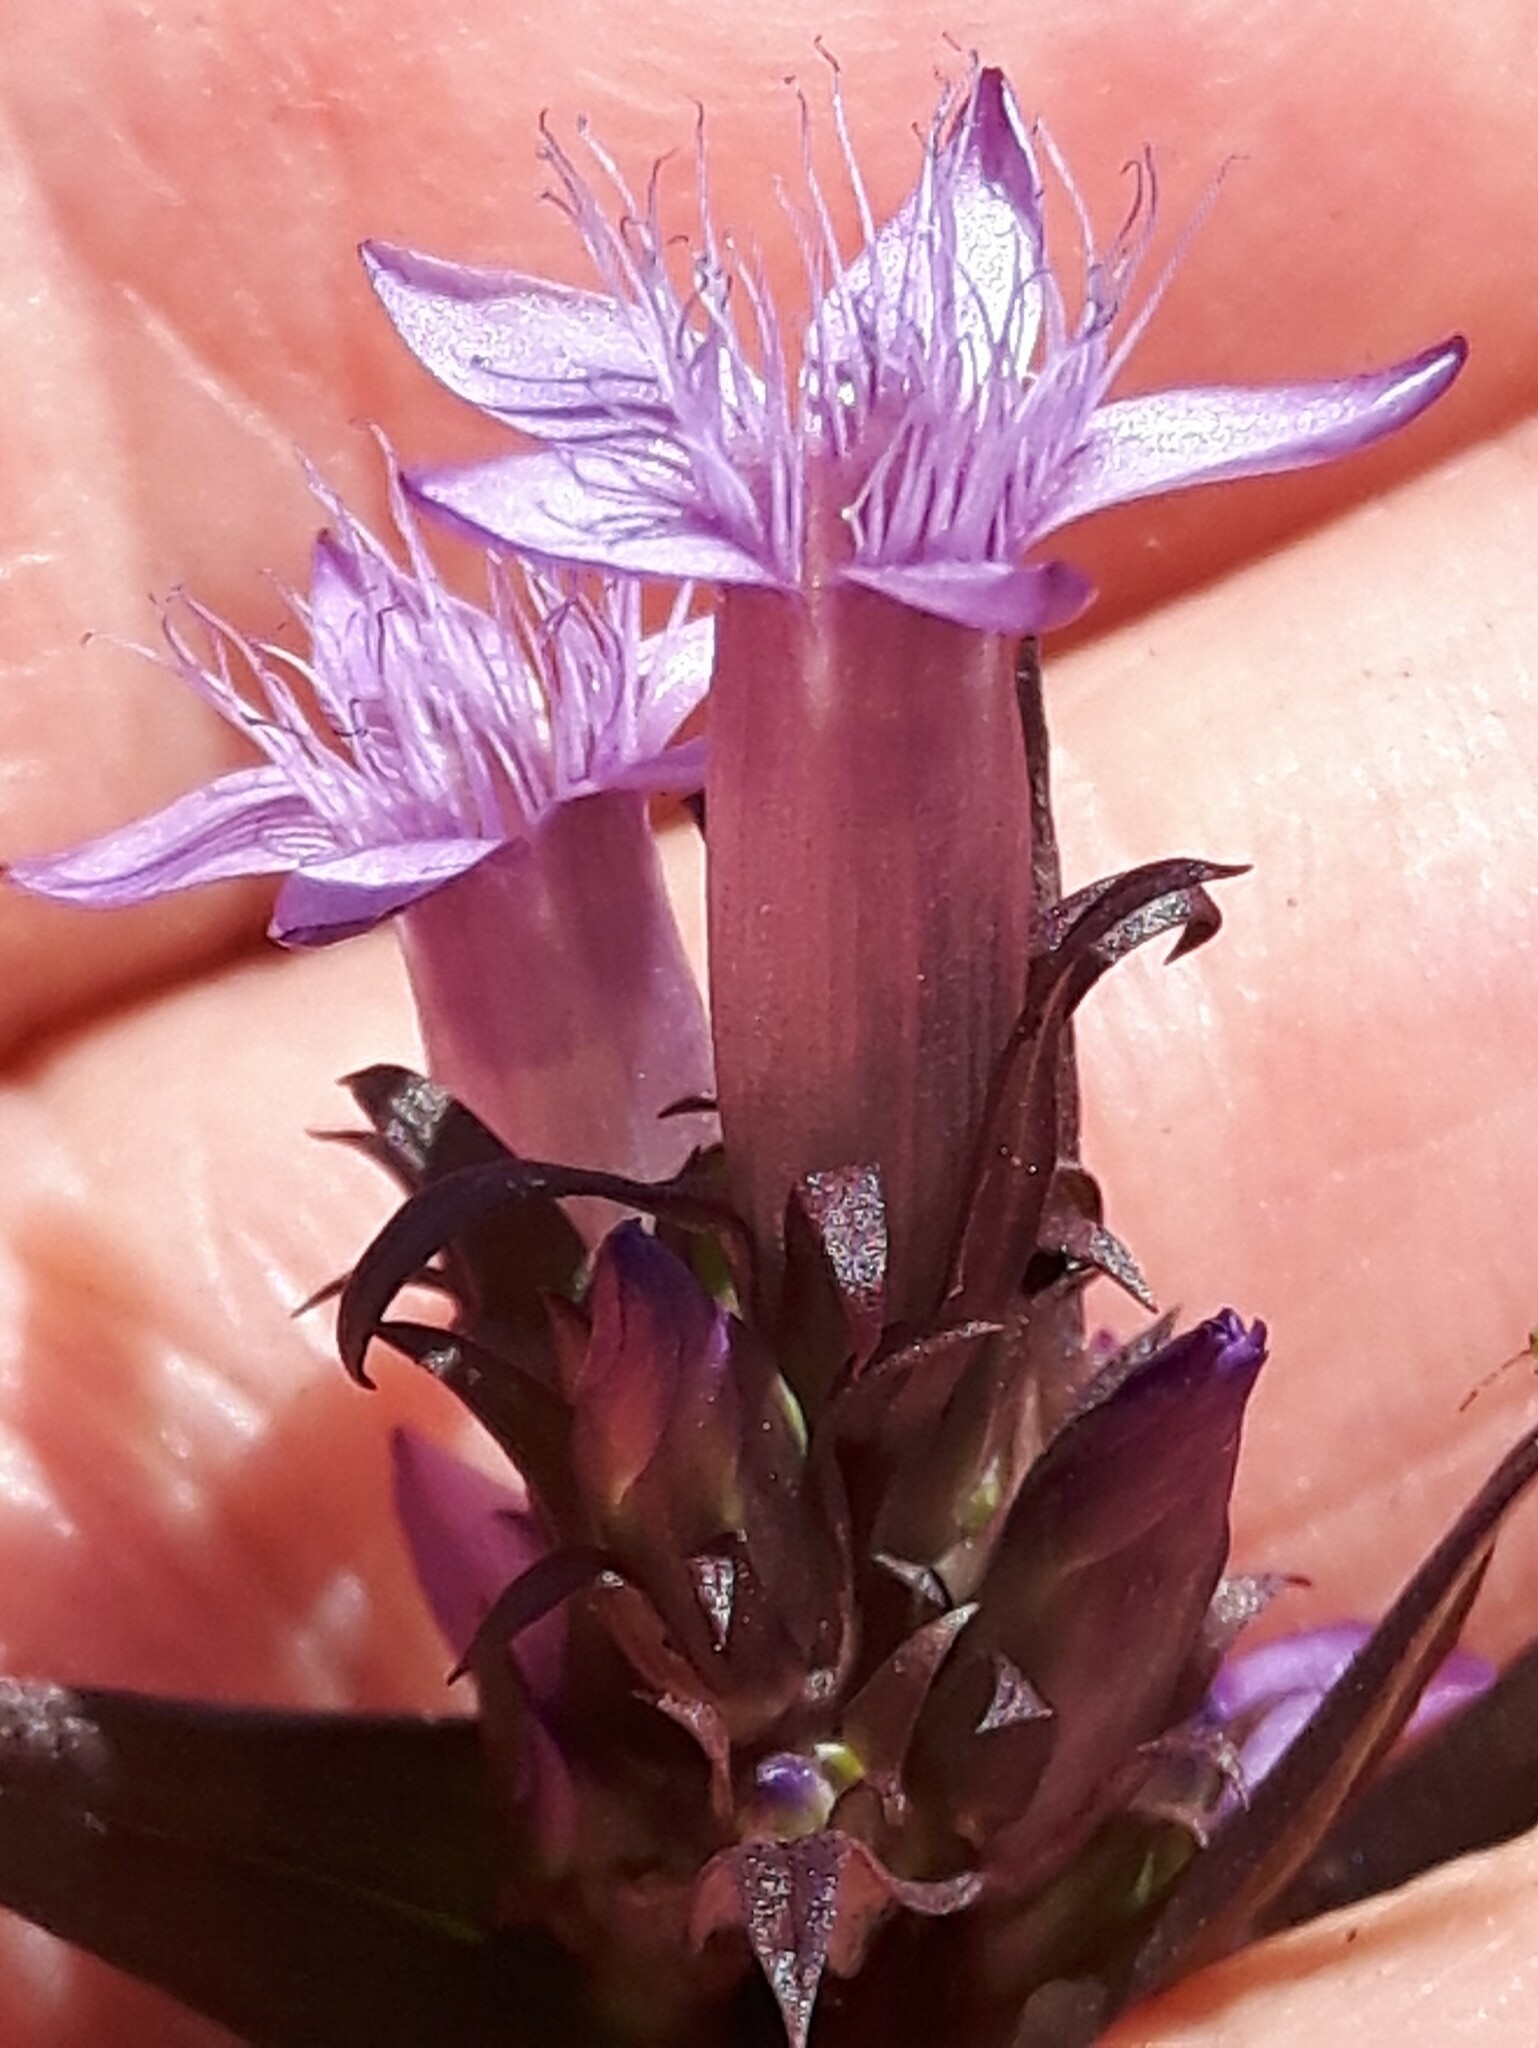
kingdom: Plantae
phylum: Tracheophyta
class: Magnoliopsida
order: Gentianales
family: Gentianaceae
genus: Gentianella
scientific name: Gentianella amarella
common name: Autumn gentian
